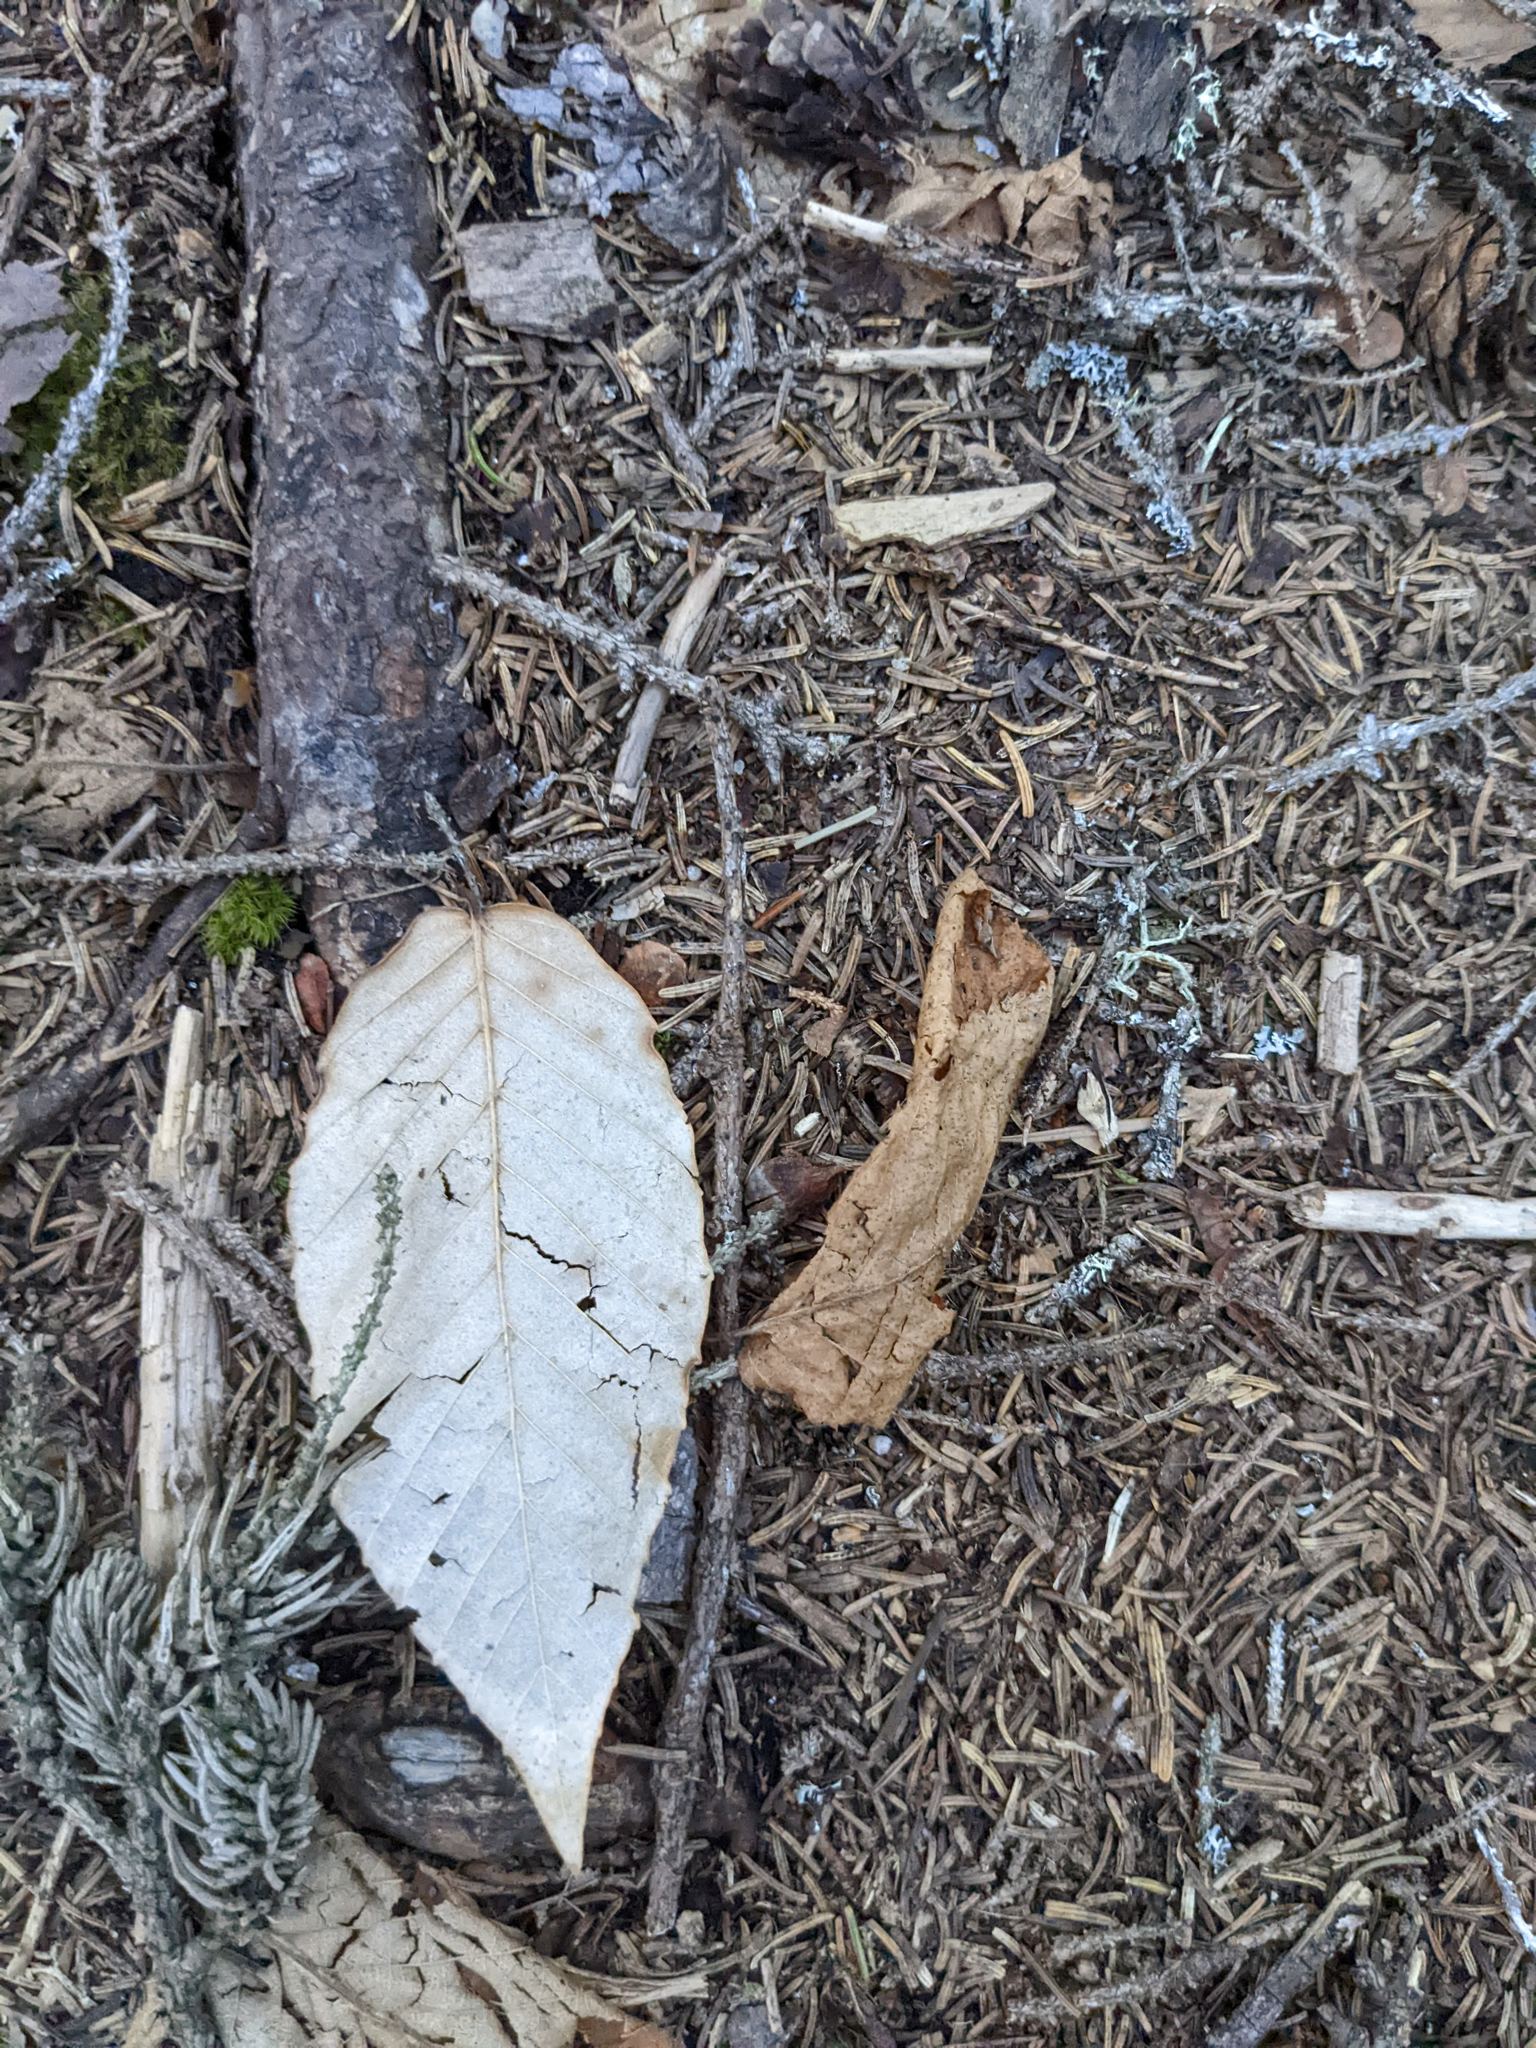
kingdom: Plantae
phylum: Tracheophyta
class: Magnoliopsida
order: Fagales
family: Fagaceae
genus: Fagus
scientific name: Fagus grandifolia
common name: American beech
